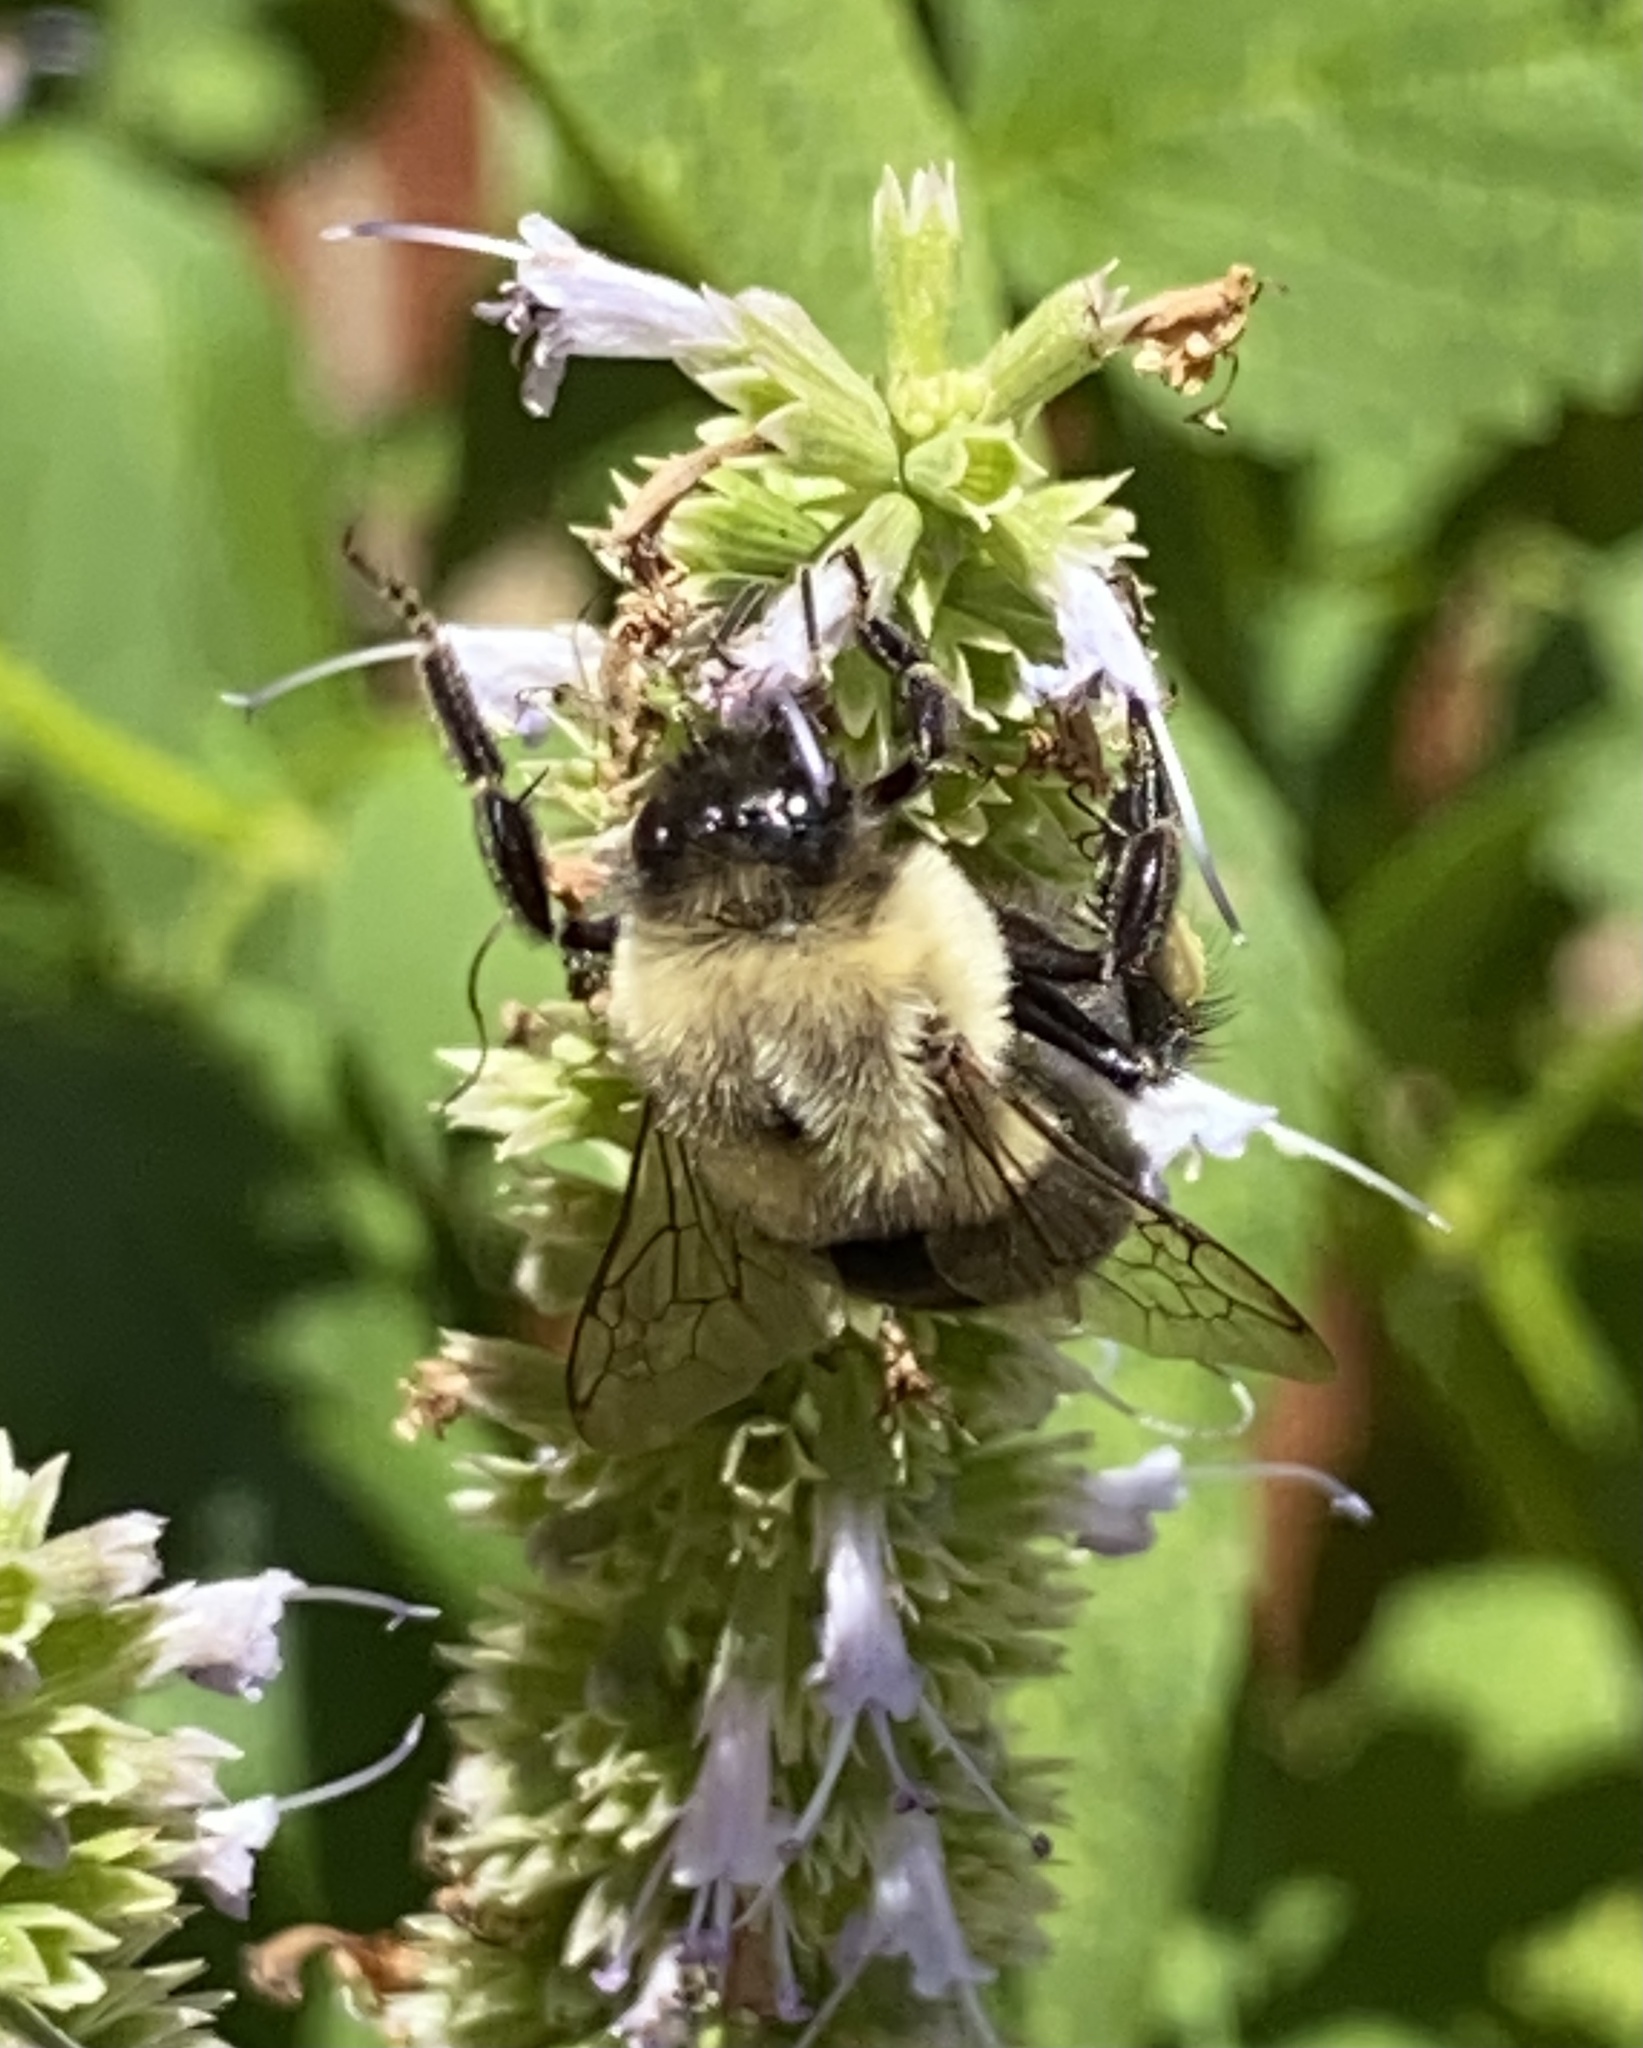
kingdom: Animalia
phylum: Arthropoda
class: Insecta
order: Hymenoptera
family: Apidae
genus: Bombus
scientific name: Bombus impatiens
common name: Common eastern bumble bee
